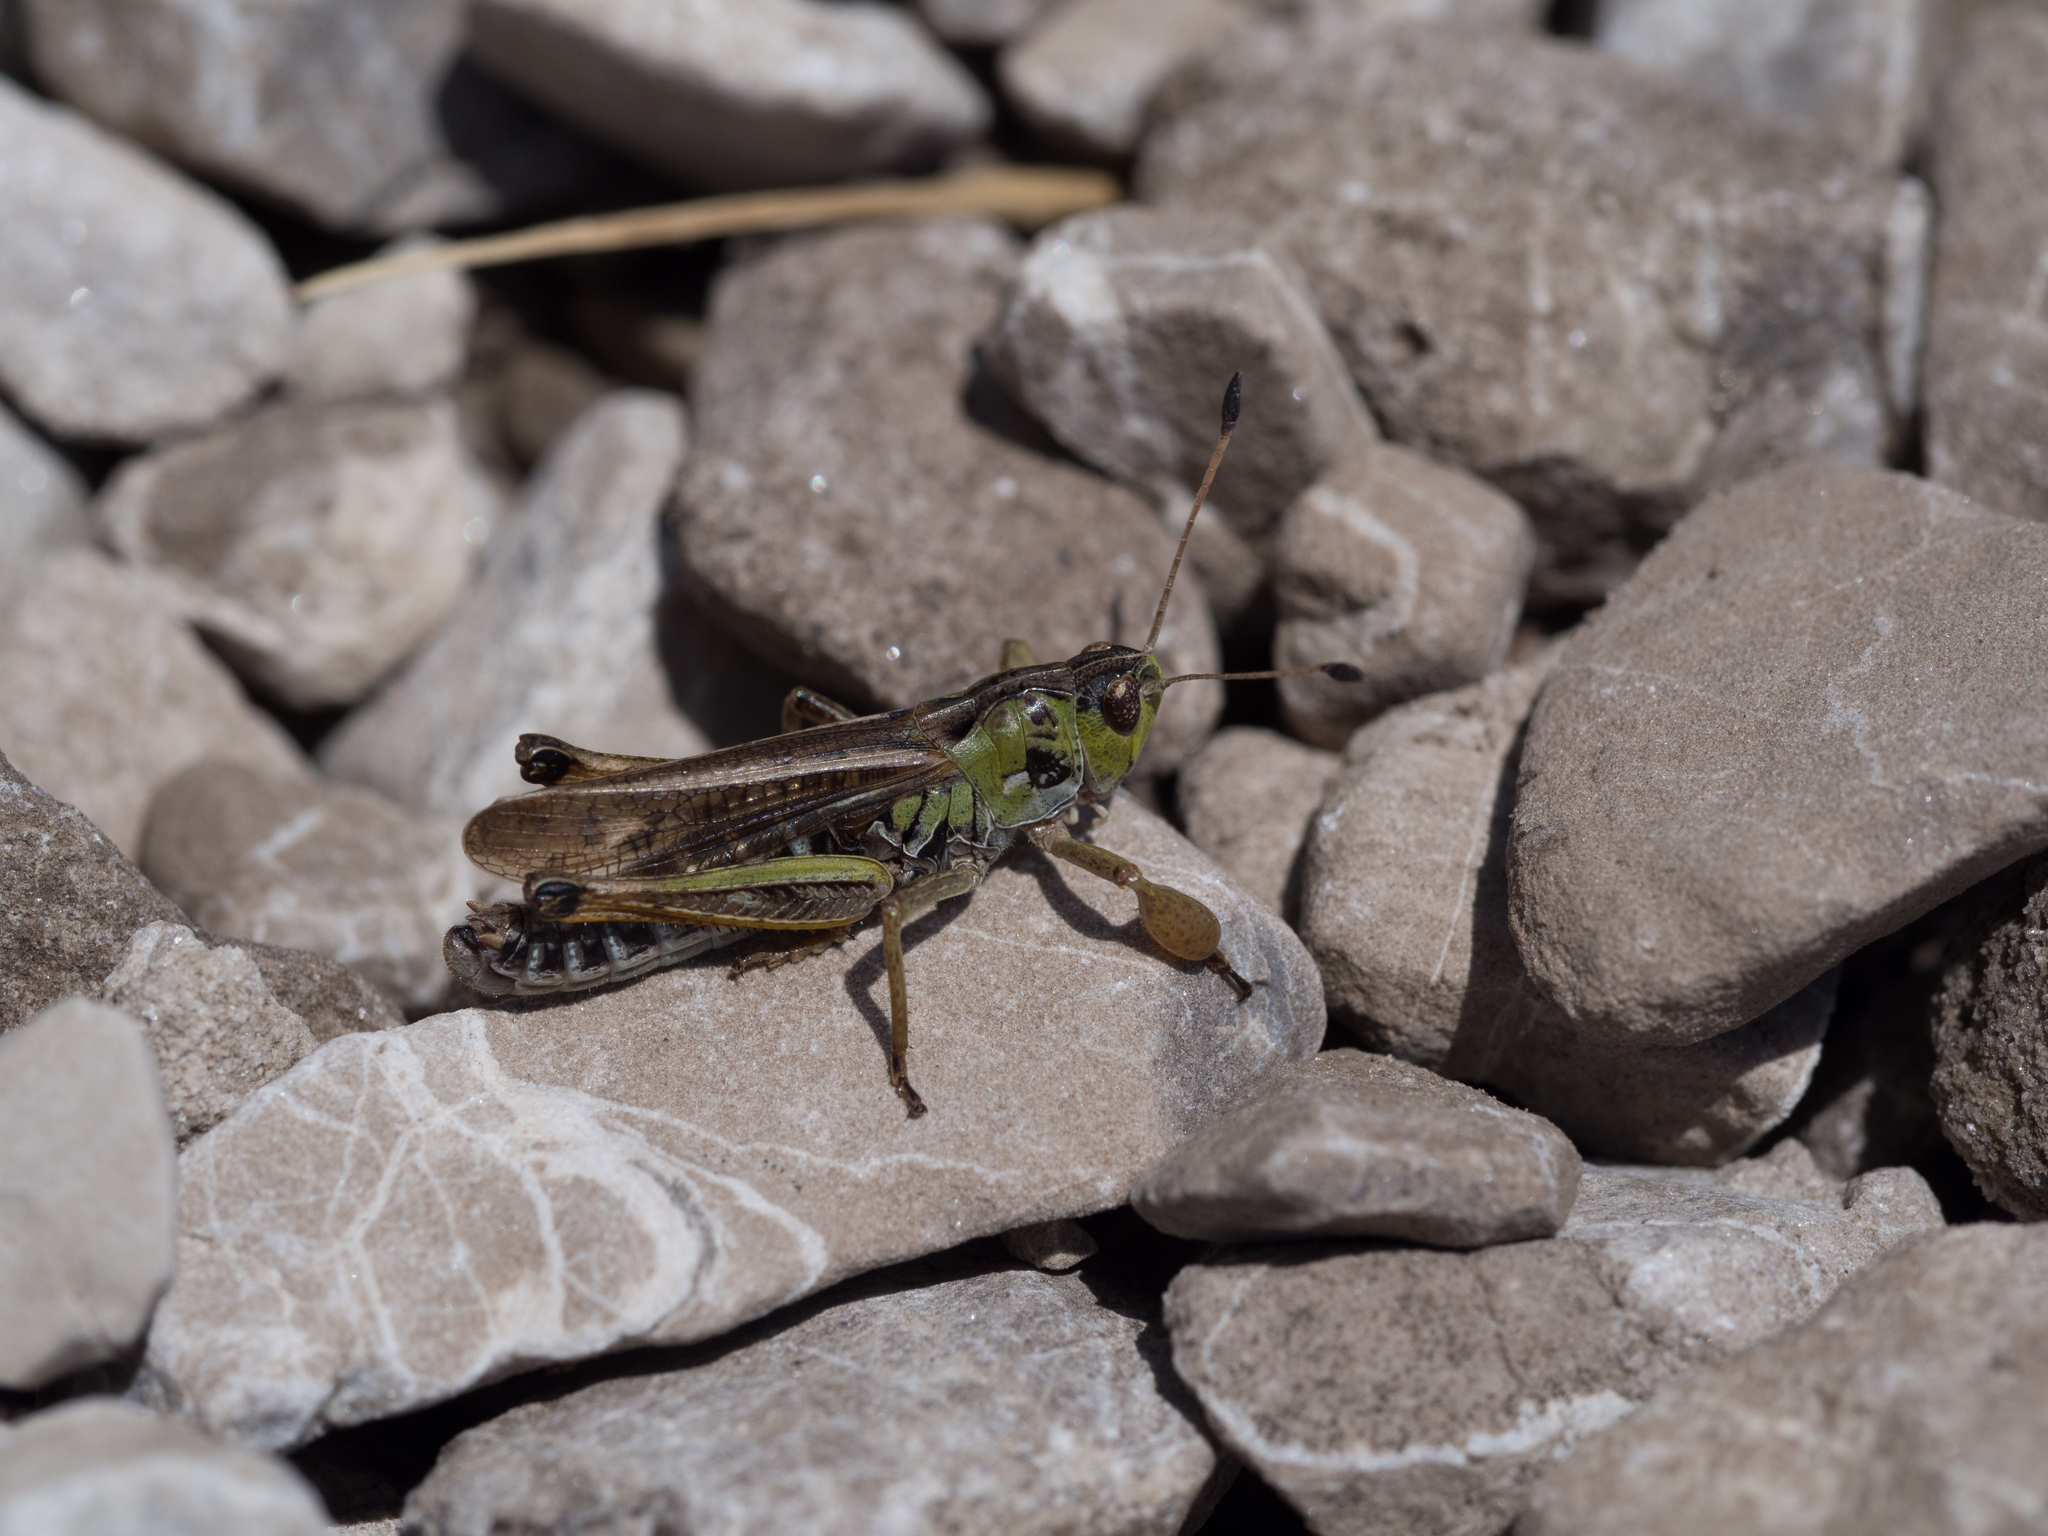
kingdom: Animalia
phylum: Arthropoda
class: Insecta
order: Orthoptera
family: Acrididae
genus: Gomphocerus
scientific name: Gomphocerus sibiricus
